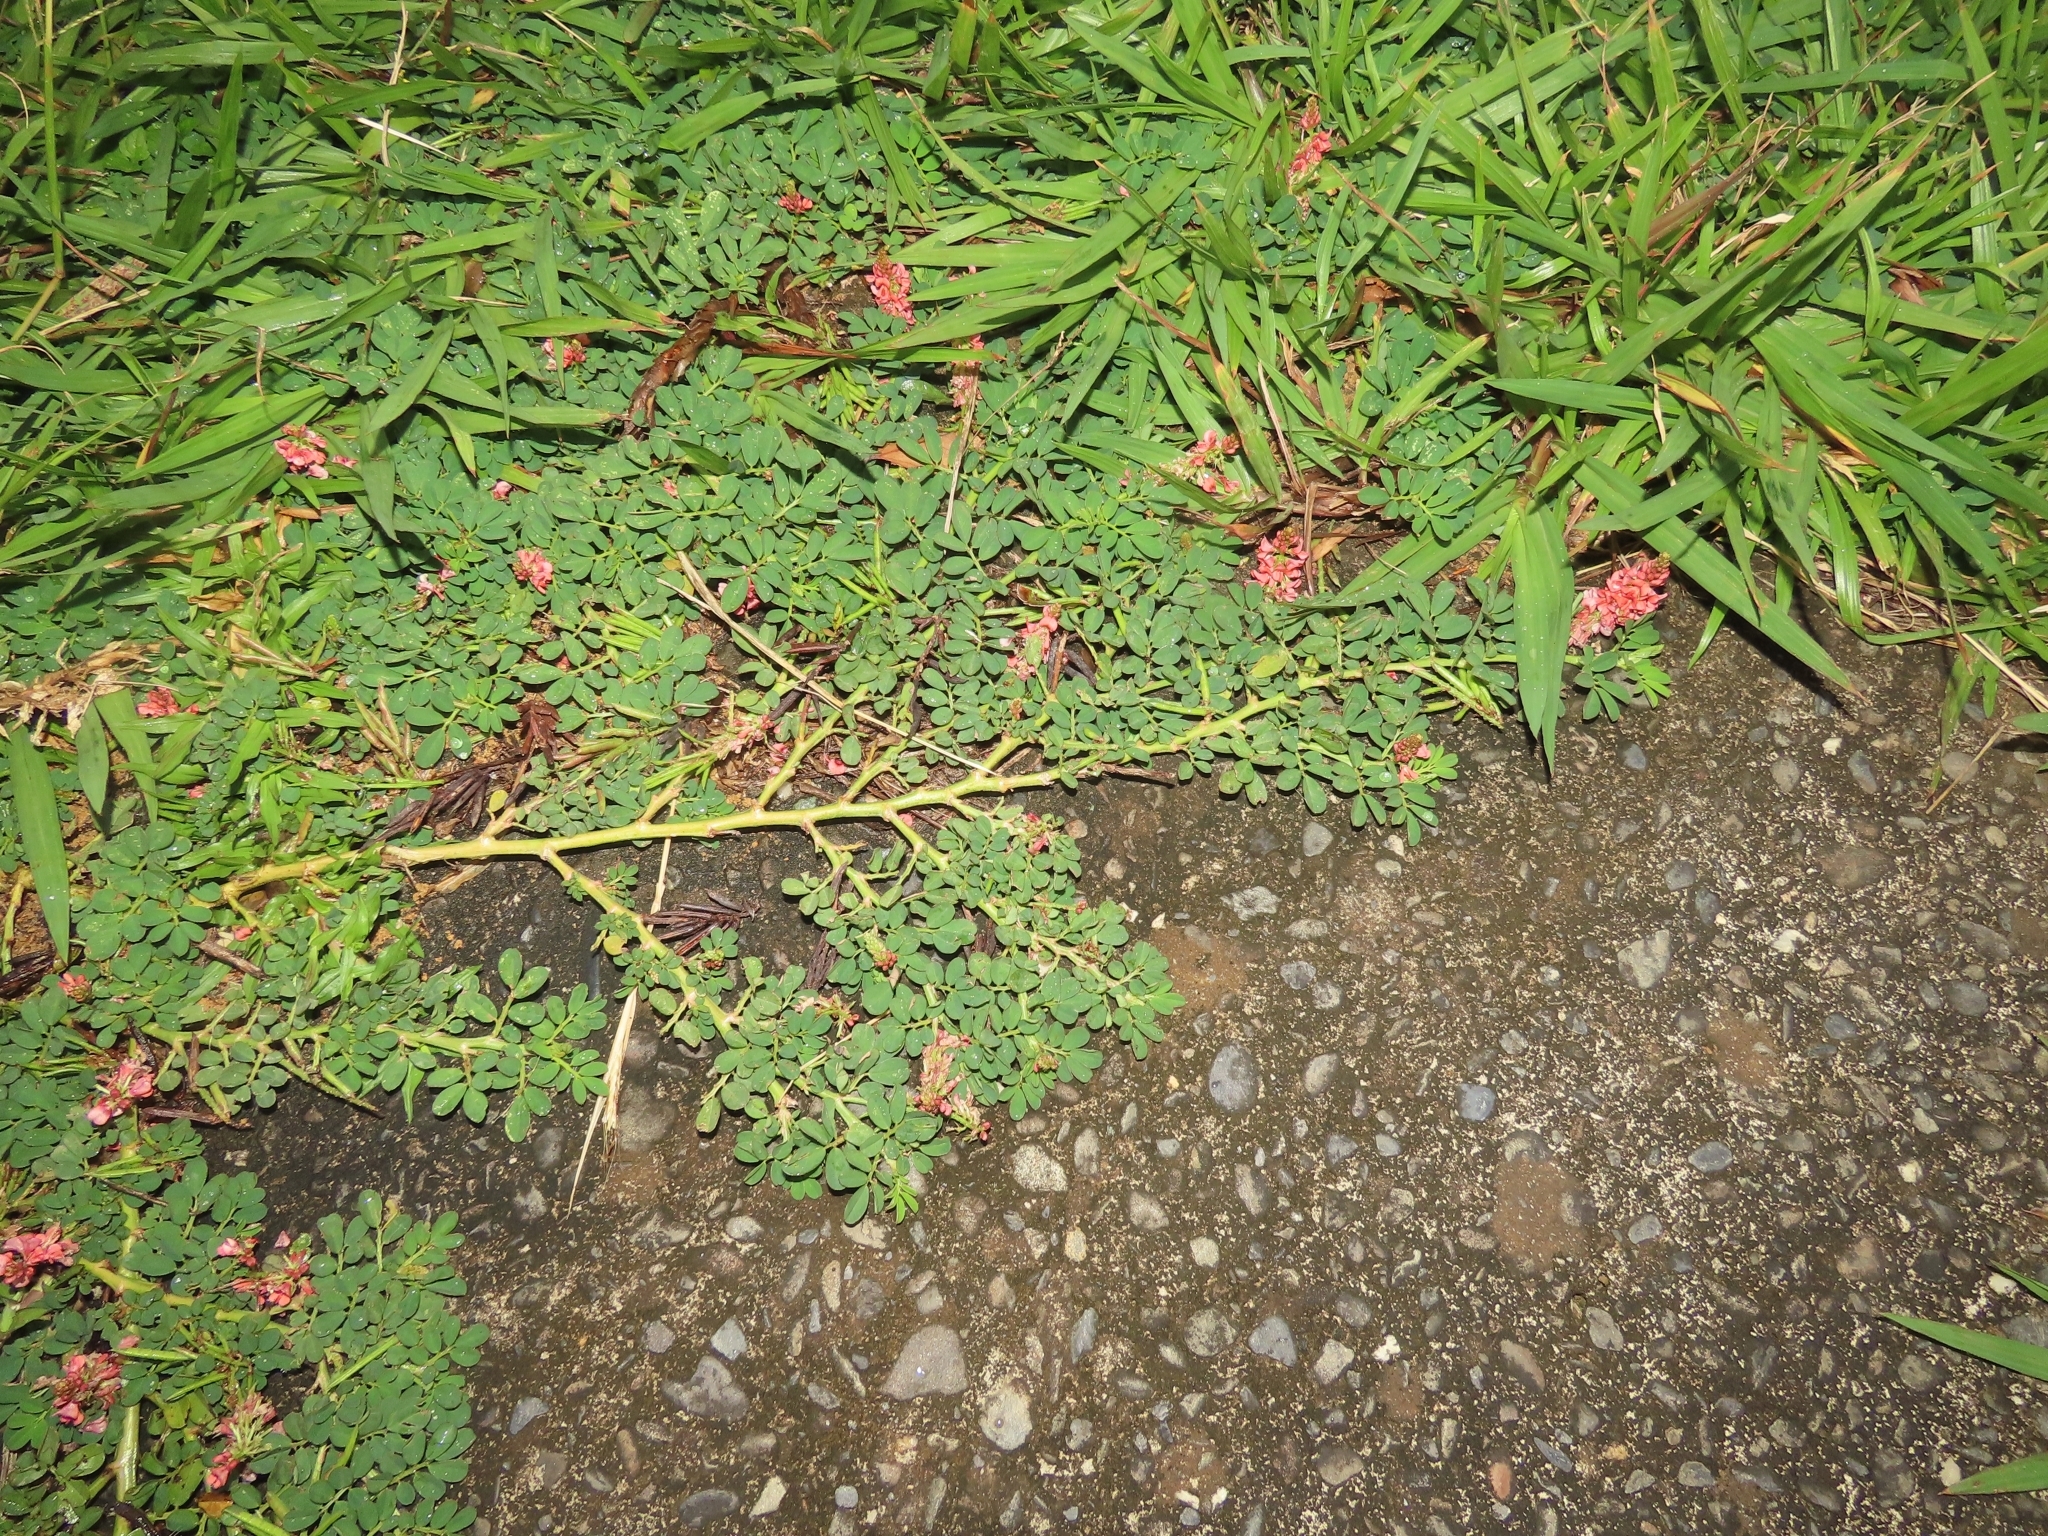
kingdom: Plantae
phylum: Tracheophyta
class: Magnoliopsida
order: Fabales
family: Fabaceae
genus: Indigofera
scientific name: Indigofera spicata
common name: Creeping indigo
